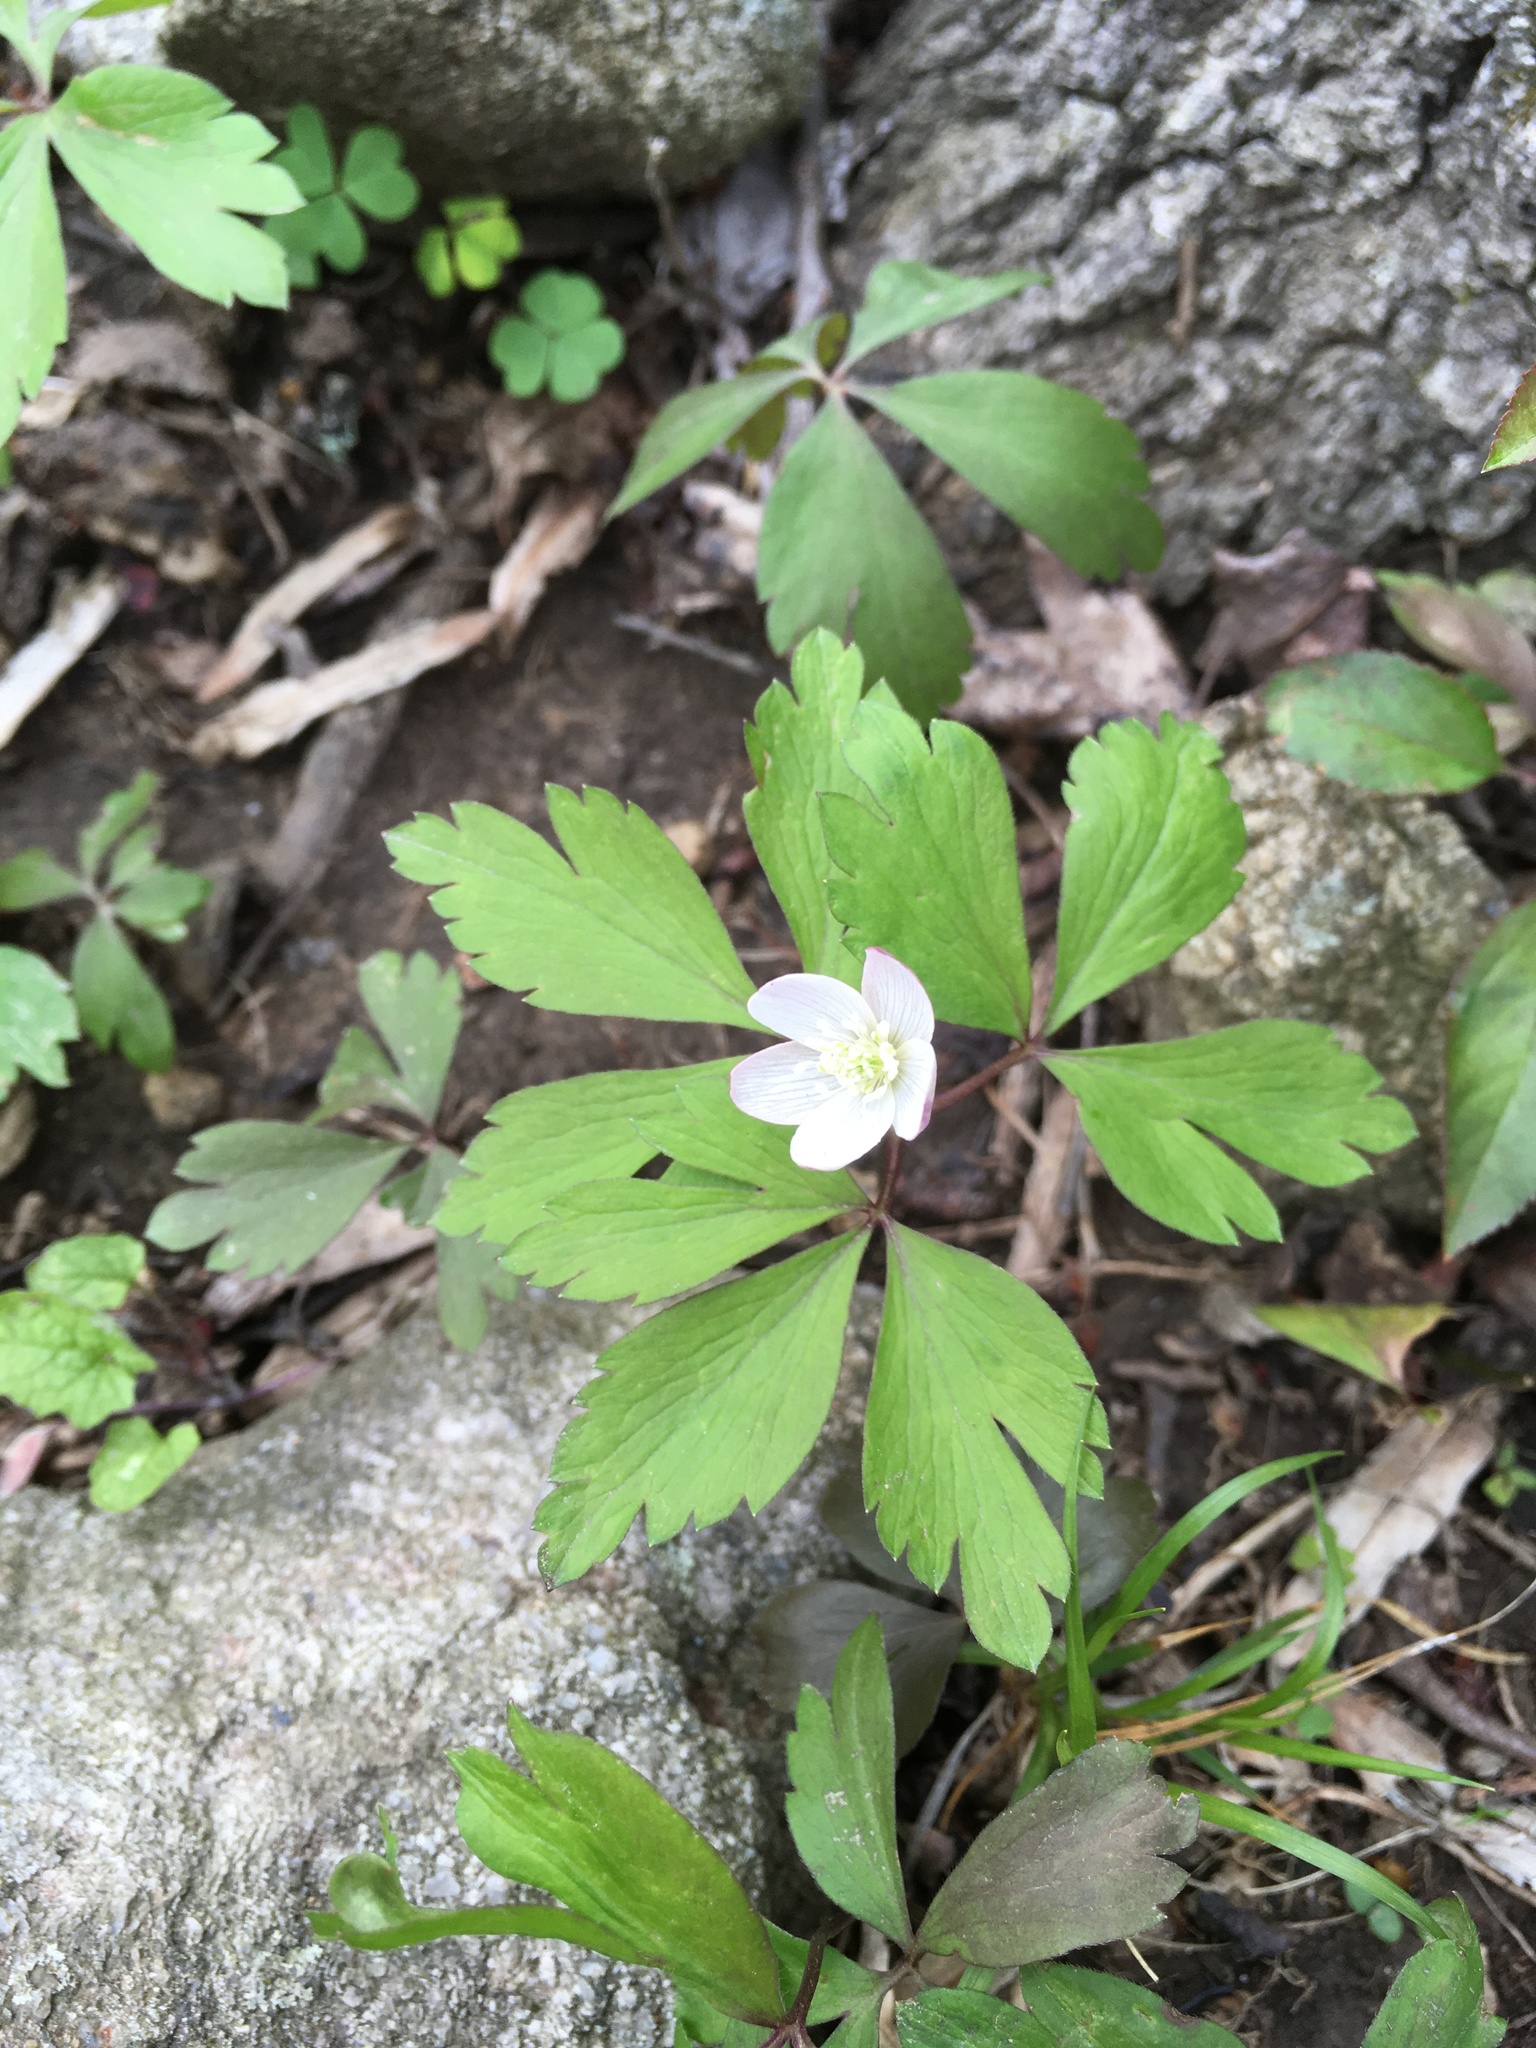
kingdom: Plantae
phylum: Tracheophyta
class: Magnoliopsida
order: Ranunculales
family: Ranunculaceae
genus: Anemone
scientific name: Anemone quinquefolia
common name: Wood anemone
